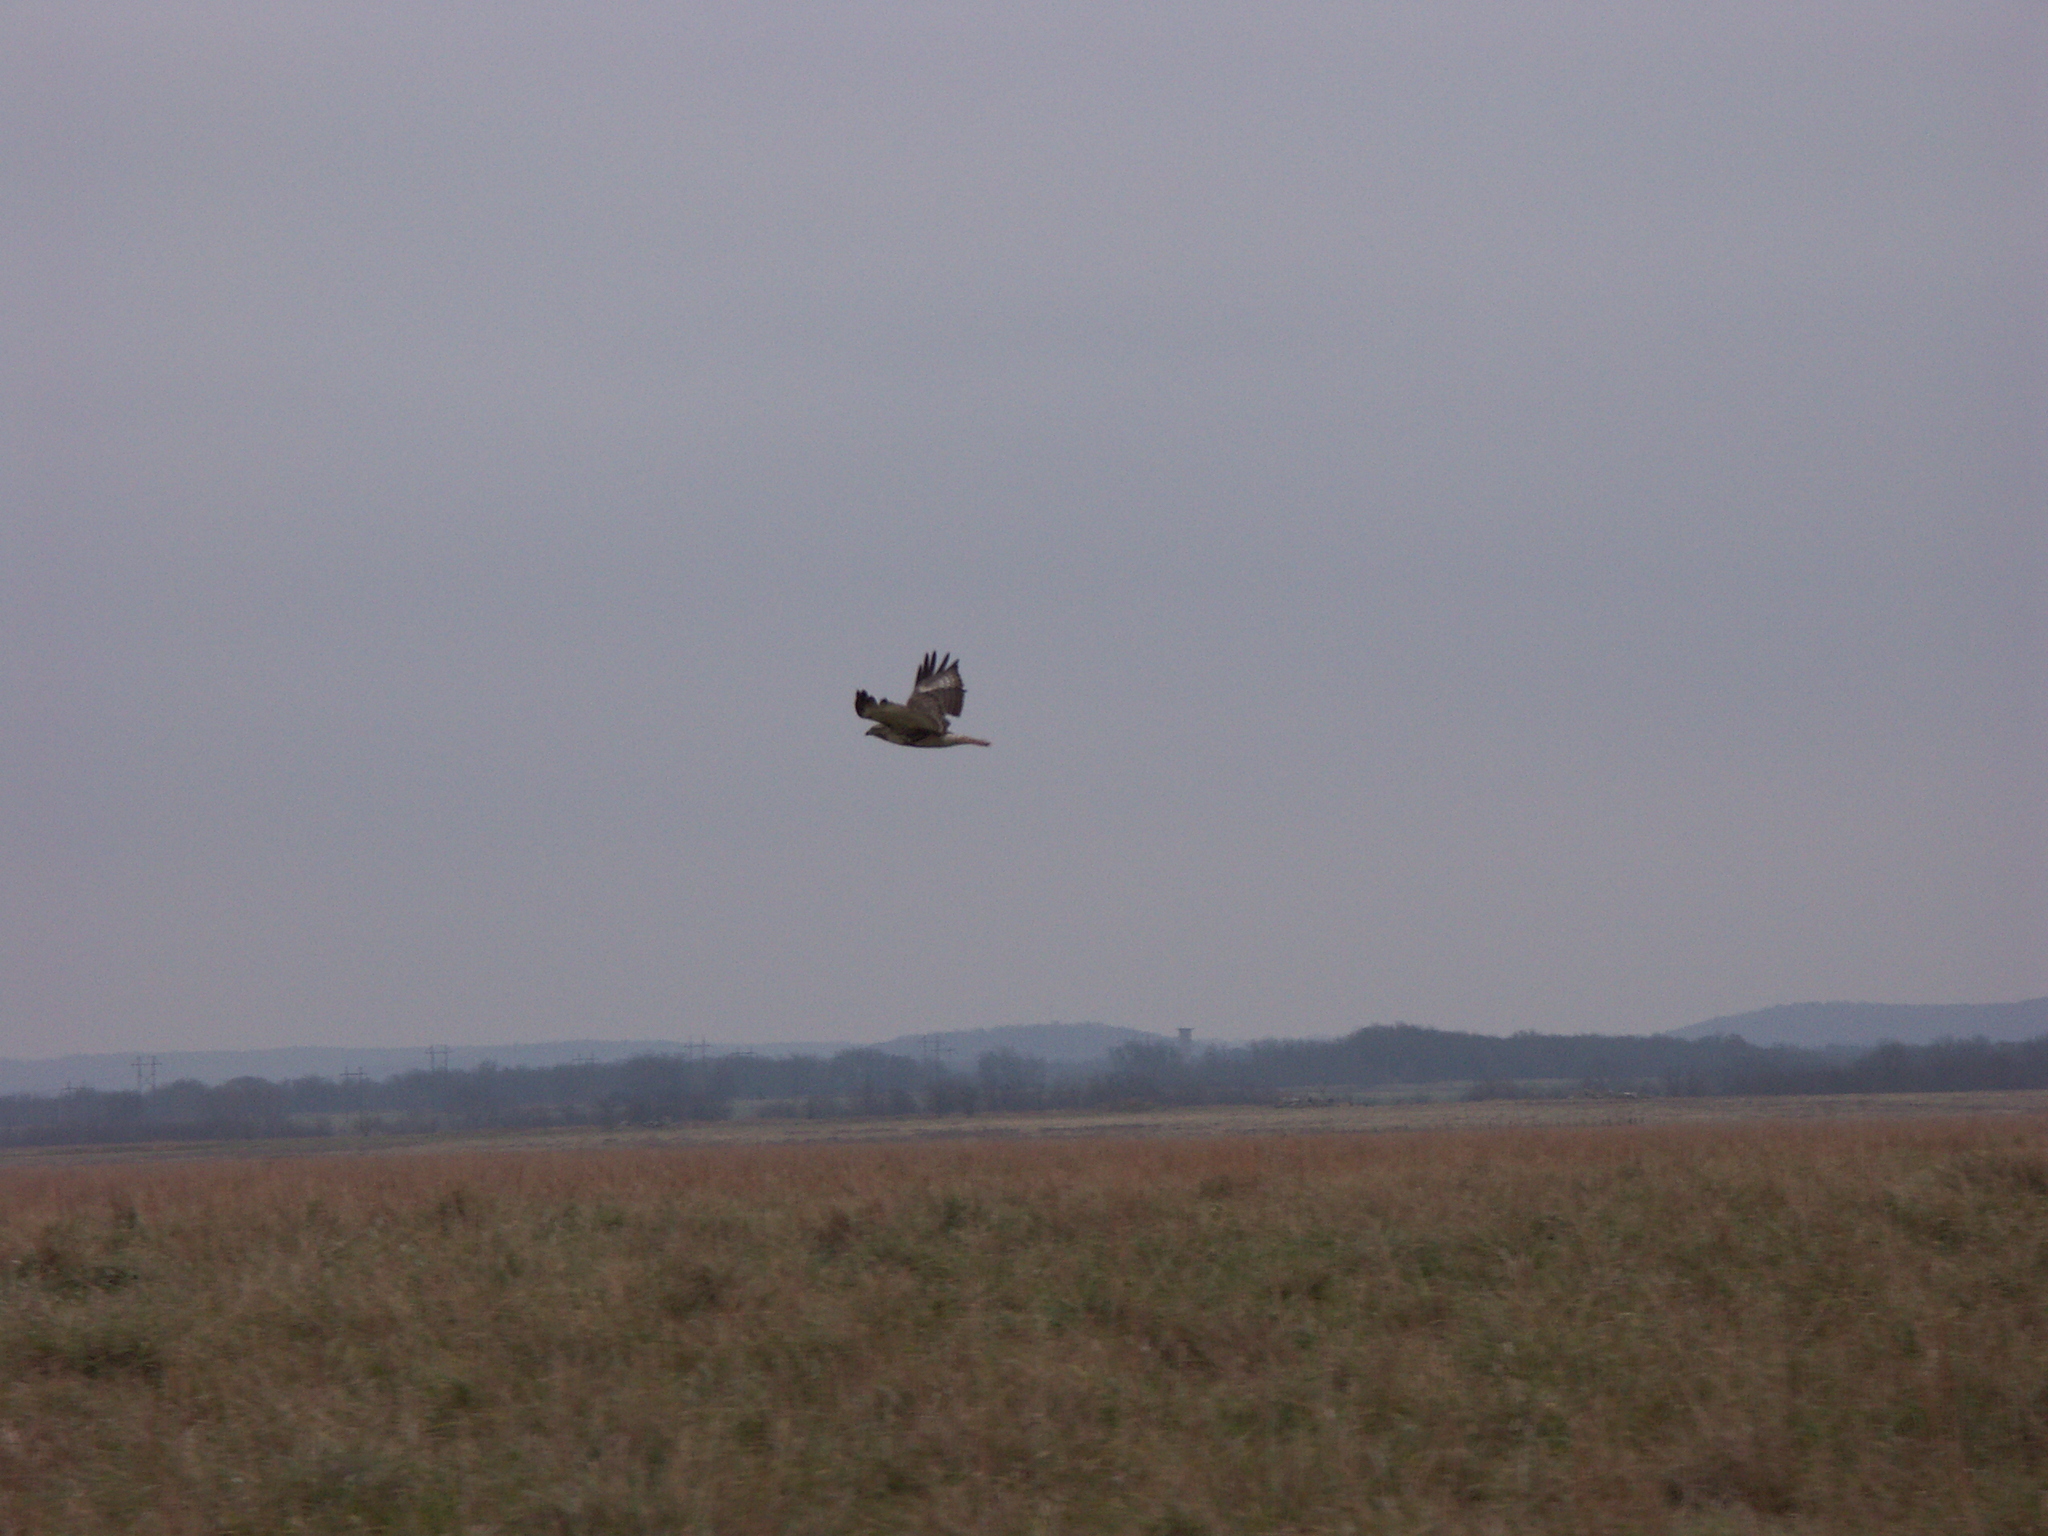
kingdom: Animalia
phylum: Chordata
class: Aves
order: Accipitriformes
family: Accipitridae
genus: Buteo
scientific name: Buteo jamaicensis
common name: Red-tailed hawk
